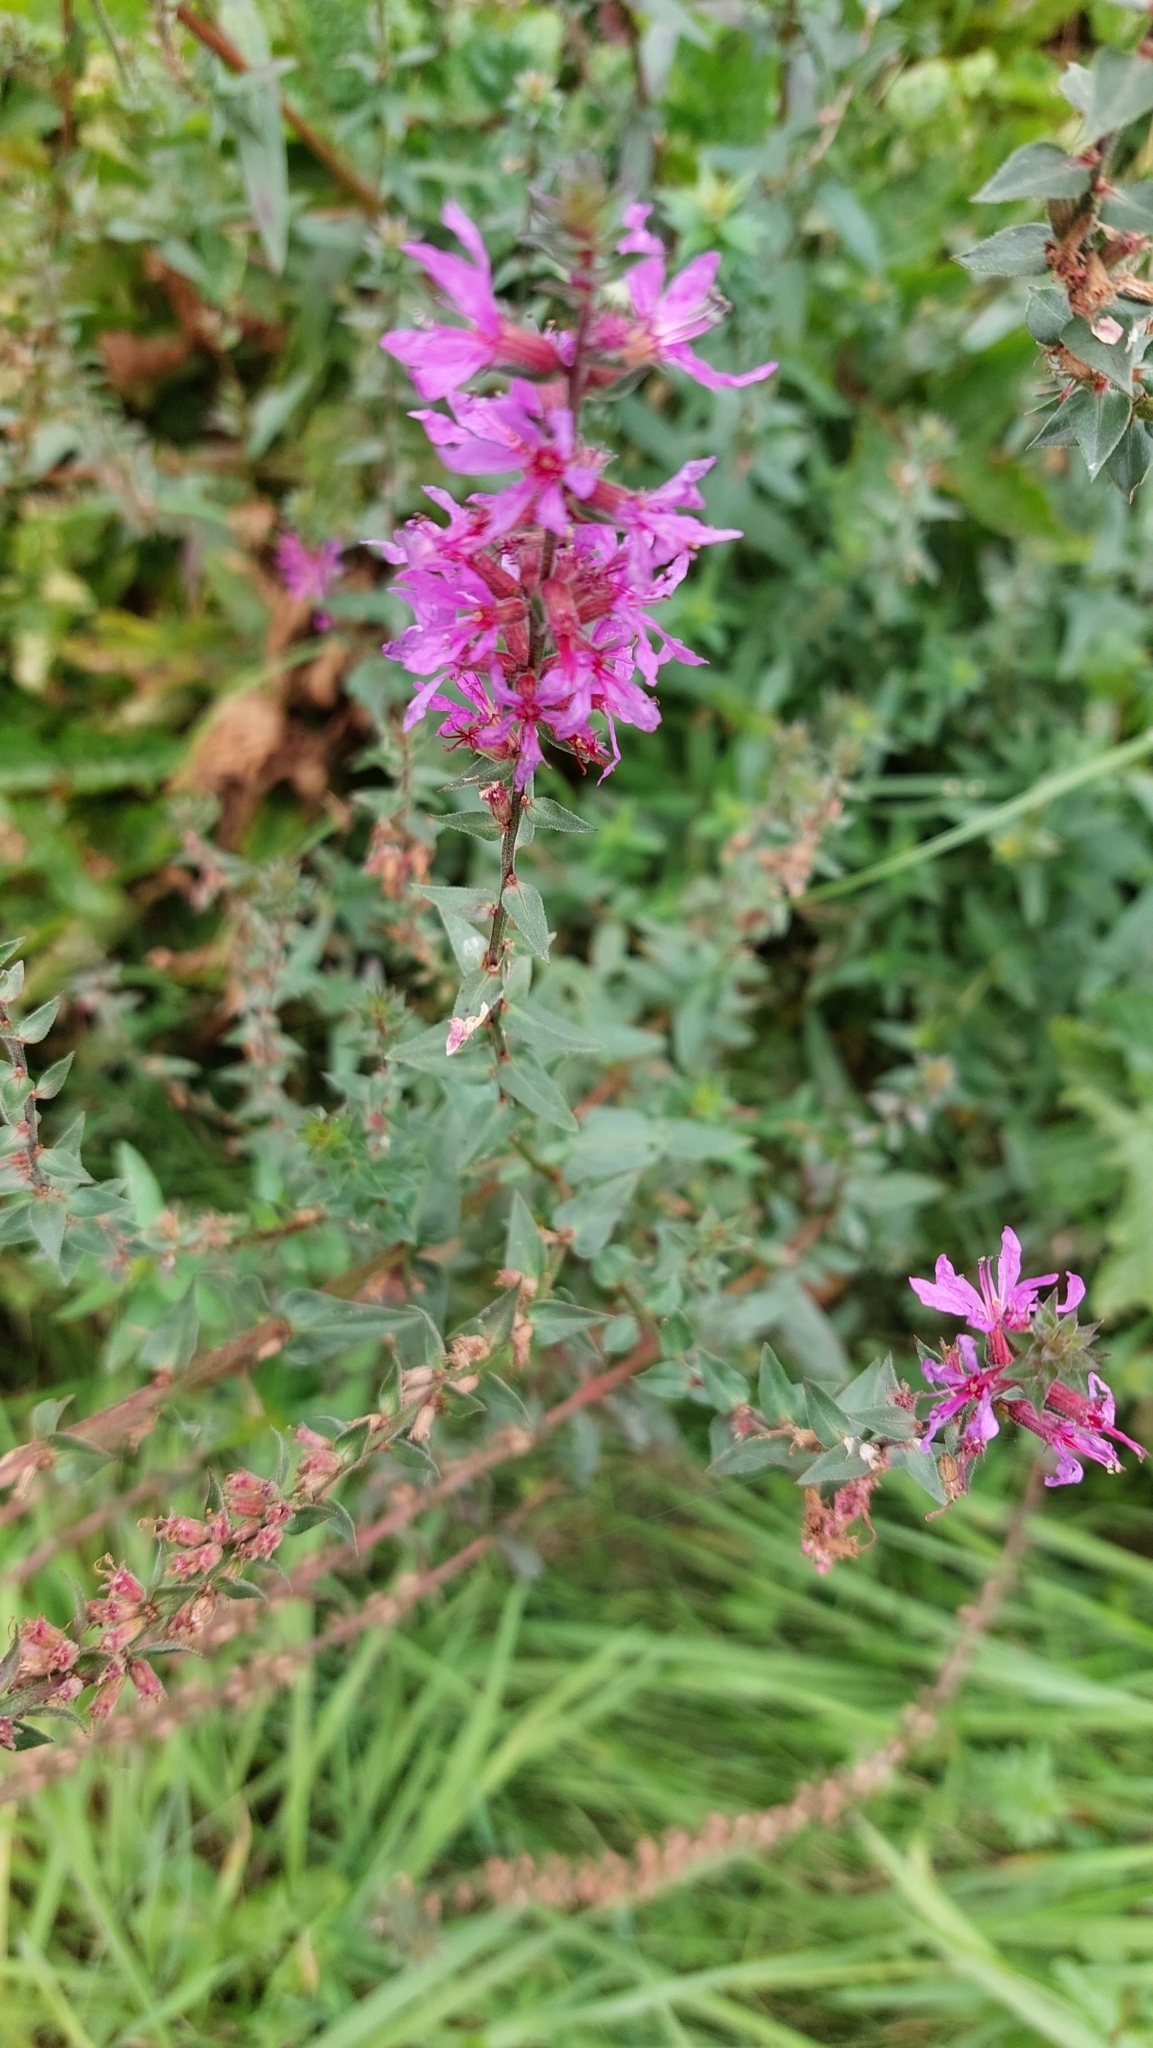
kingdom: Plantae
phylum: Tracheophyta
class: Magnoliopsida
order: Myrtales
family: Lythraceae
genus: Lythrum
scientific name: Lythrum salicaria
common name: Purple loosestrife
